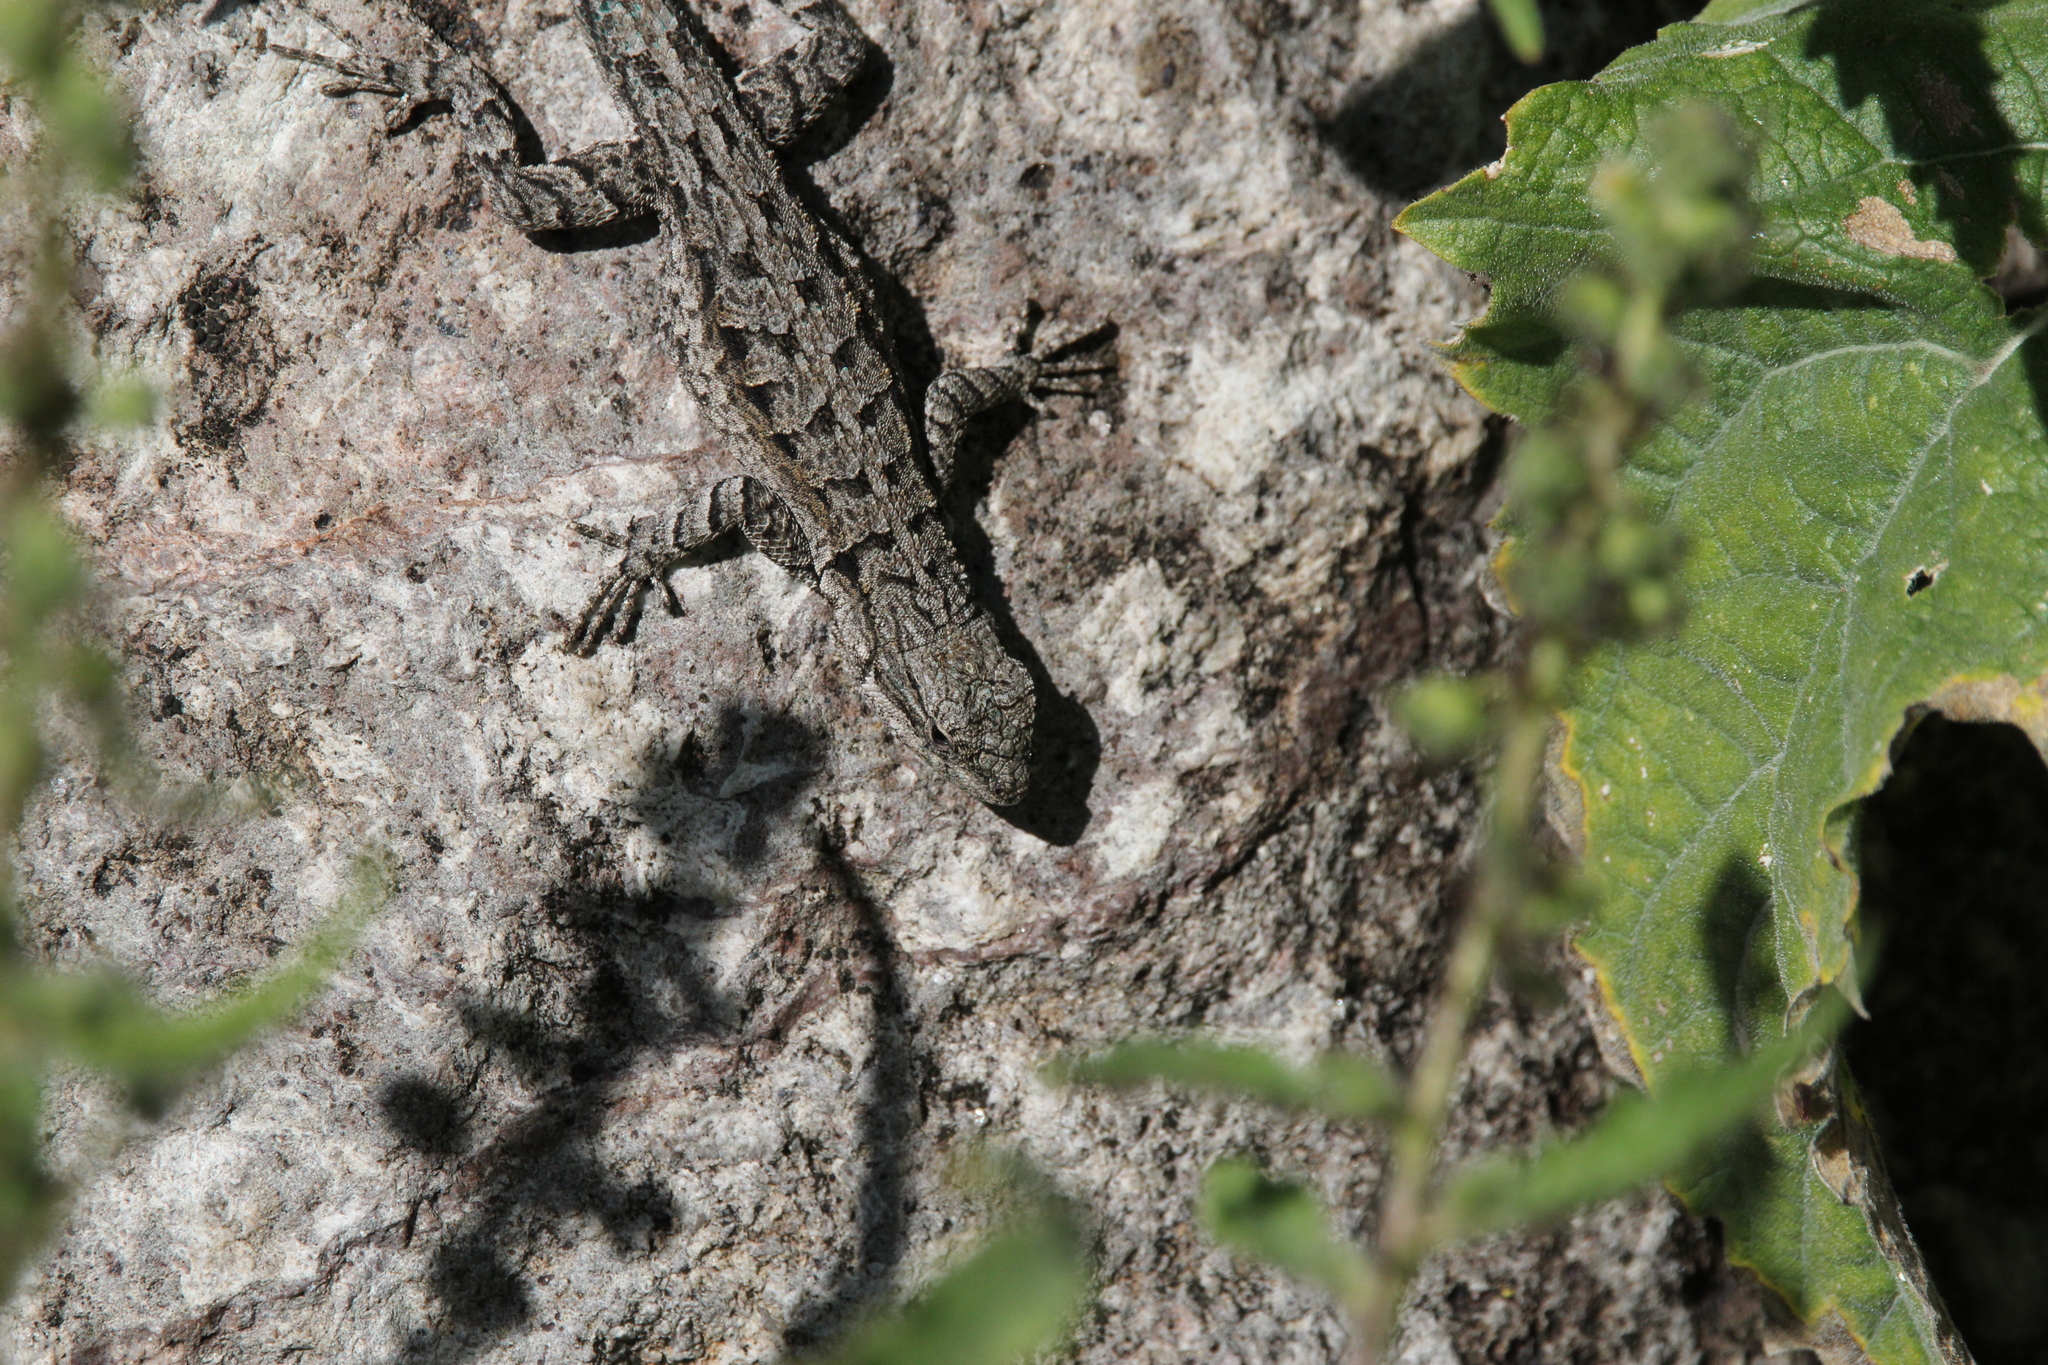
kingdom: Animalia
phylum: Chordata
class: Squamata
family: Phrynosomatidae
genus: Urosaurus
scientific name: Urosaurus ornatus
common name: Ornate tree lizard
